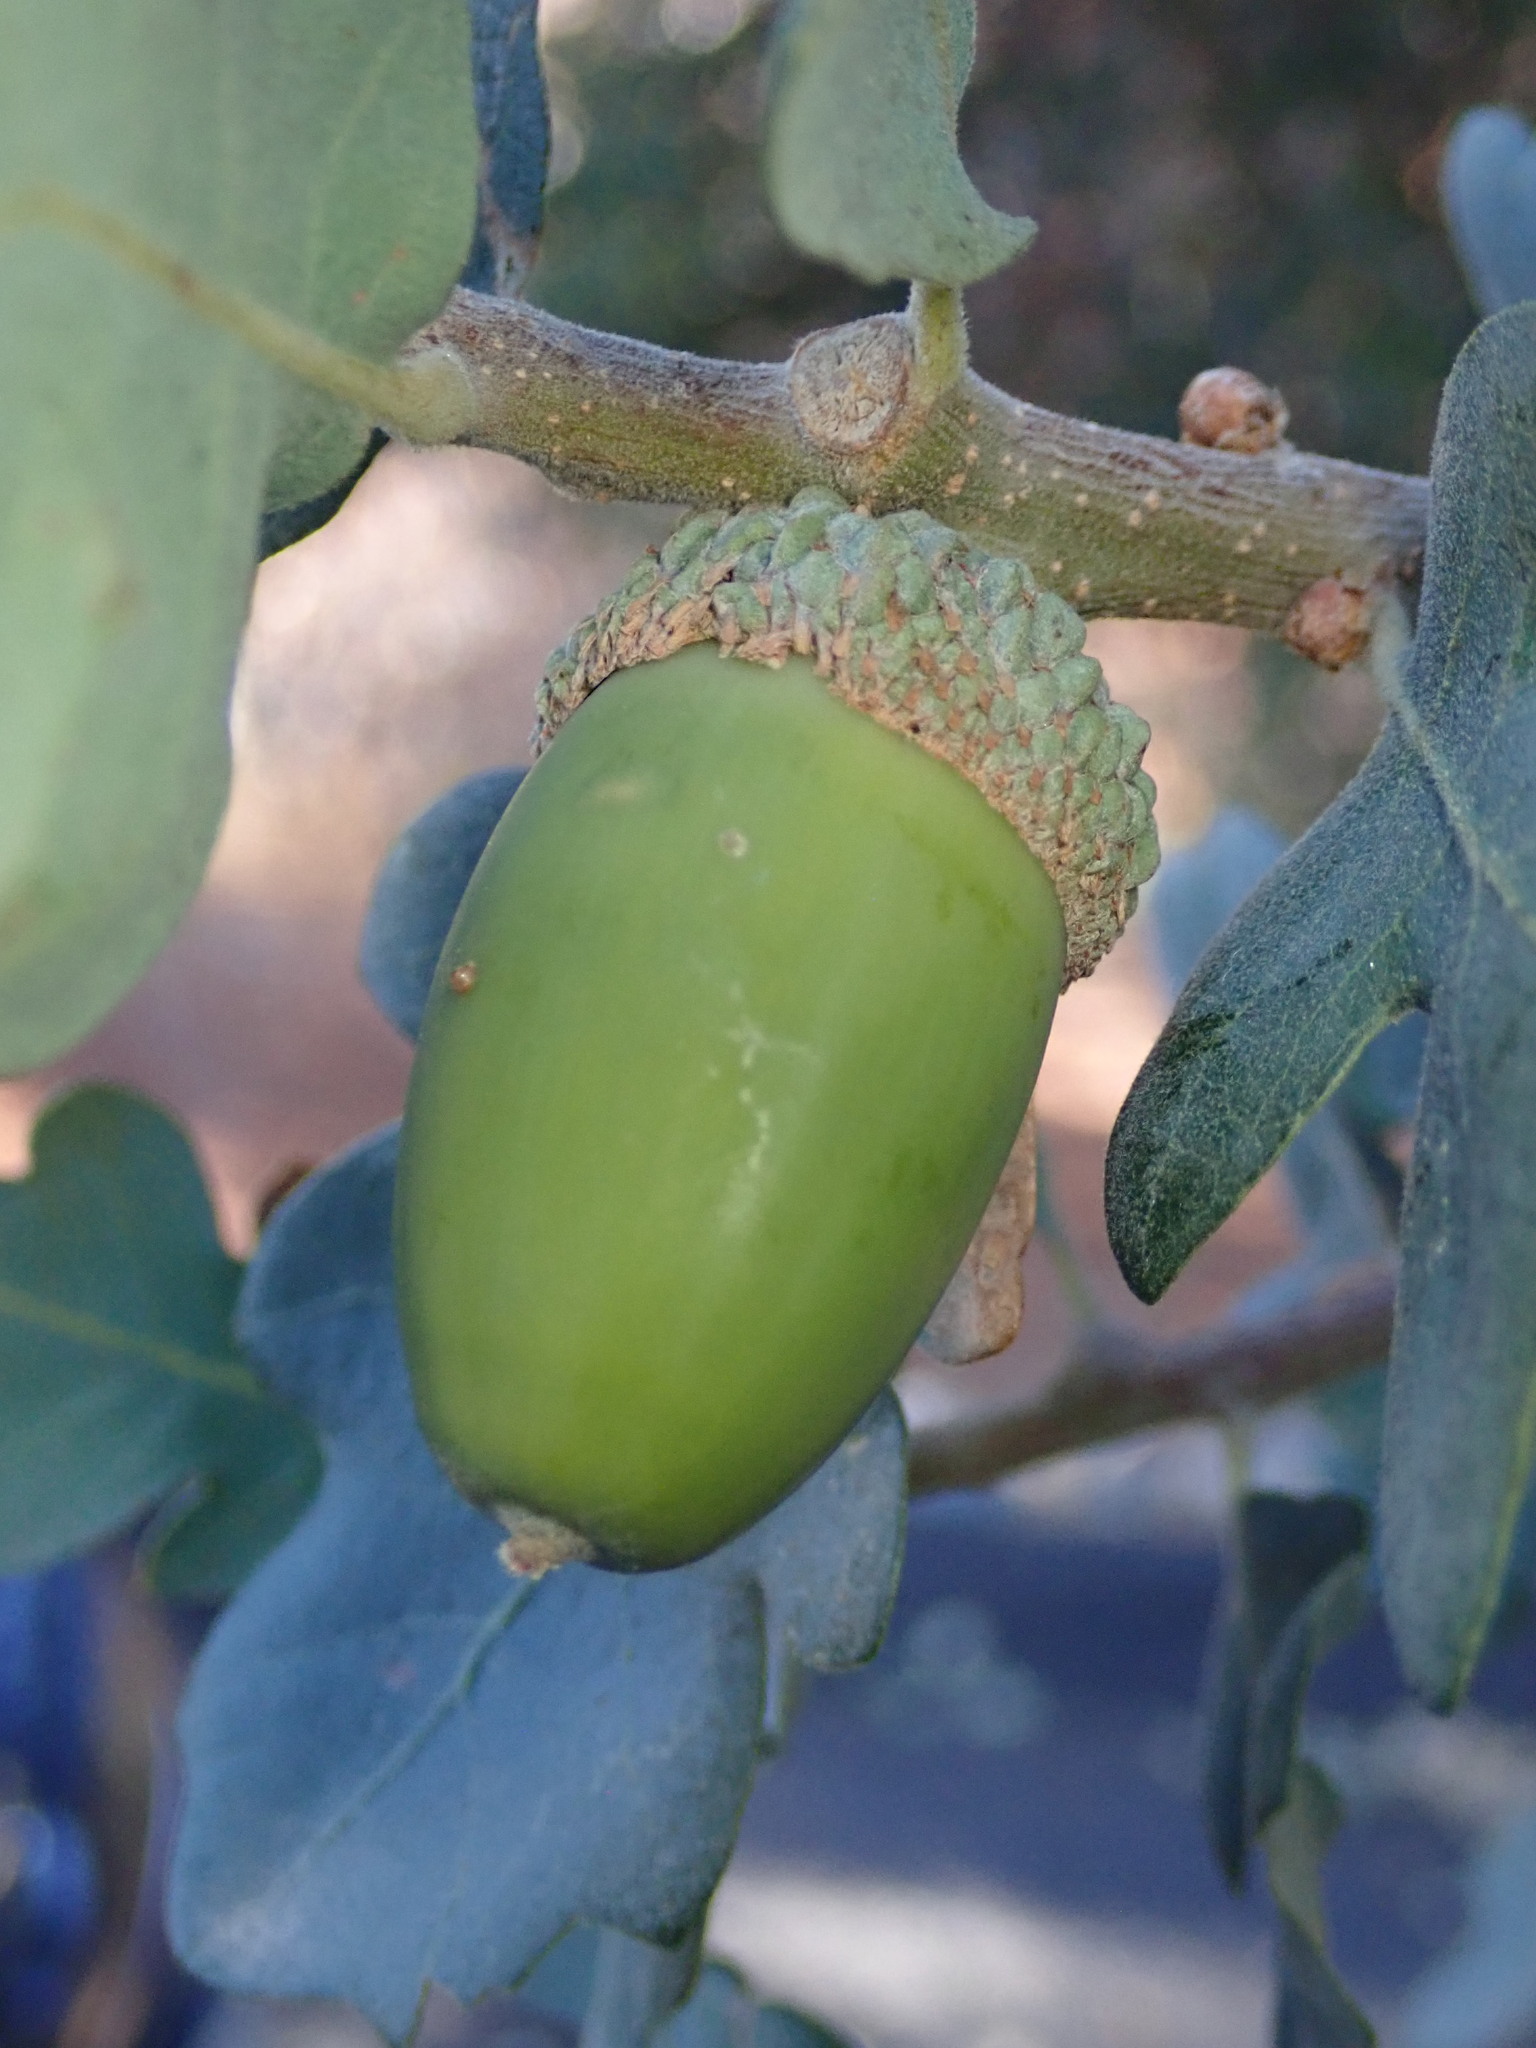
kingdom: Plantae
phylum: Tracheophyta
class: Magnoliopsida
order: Fagales
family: Fagaceae
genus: Quercus
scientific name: Quercus douglasii
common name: Blue oak
